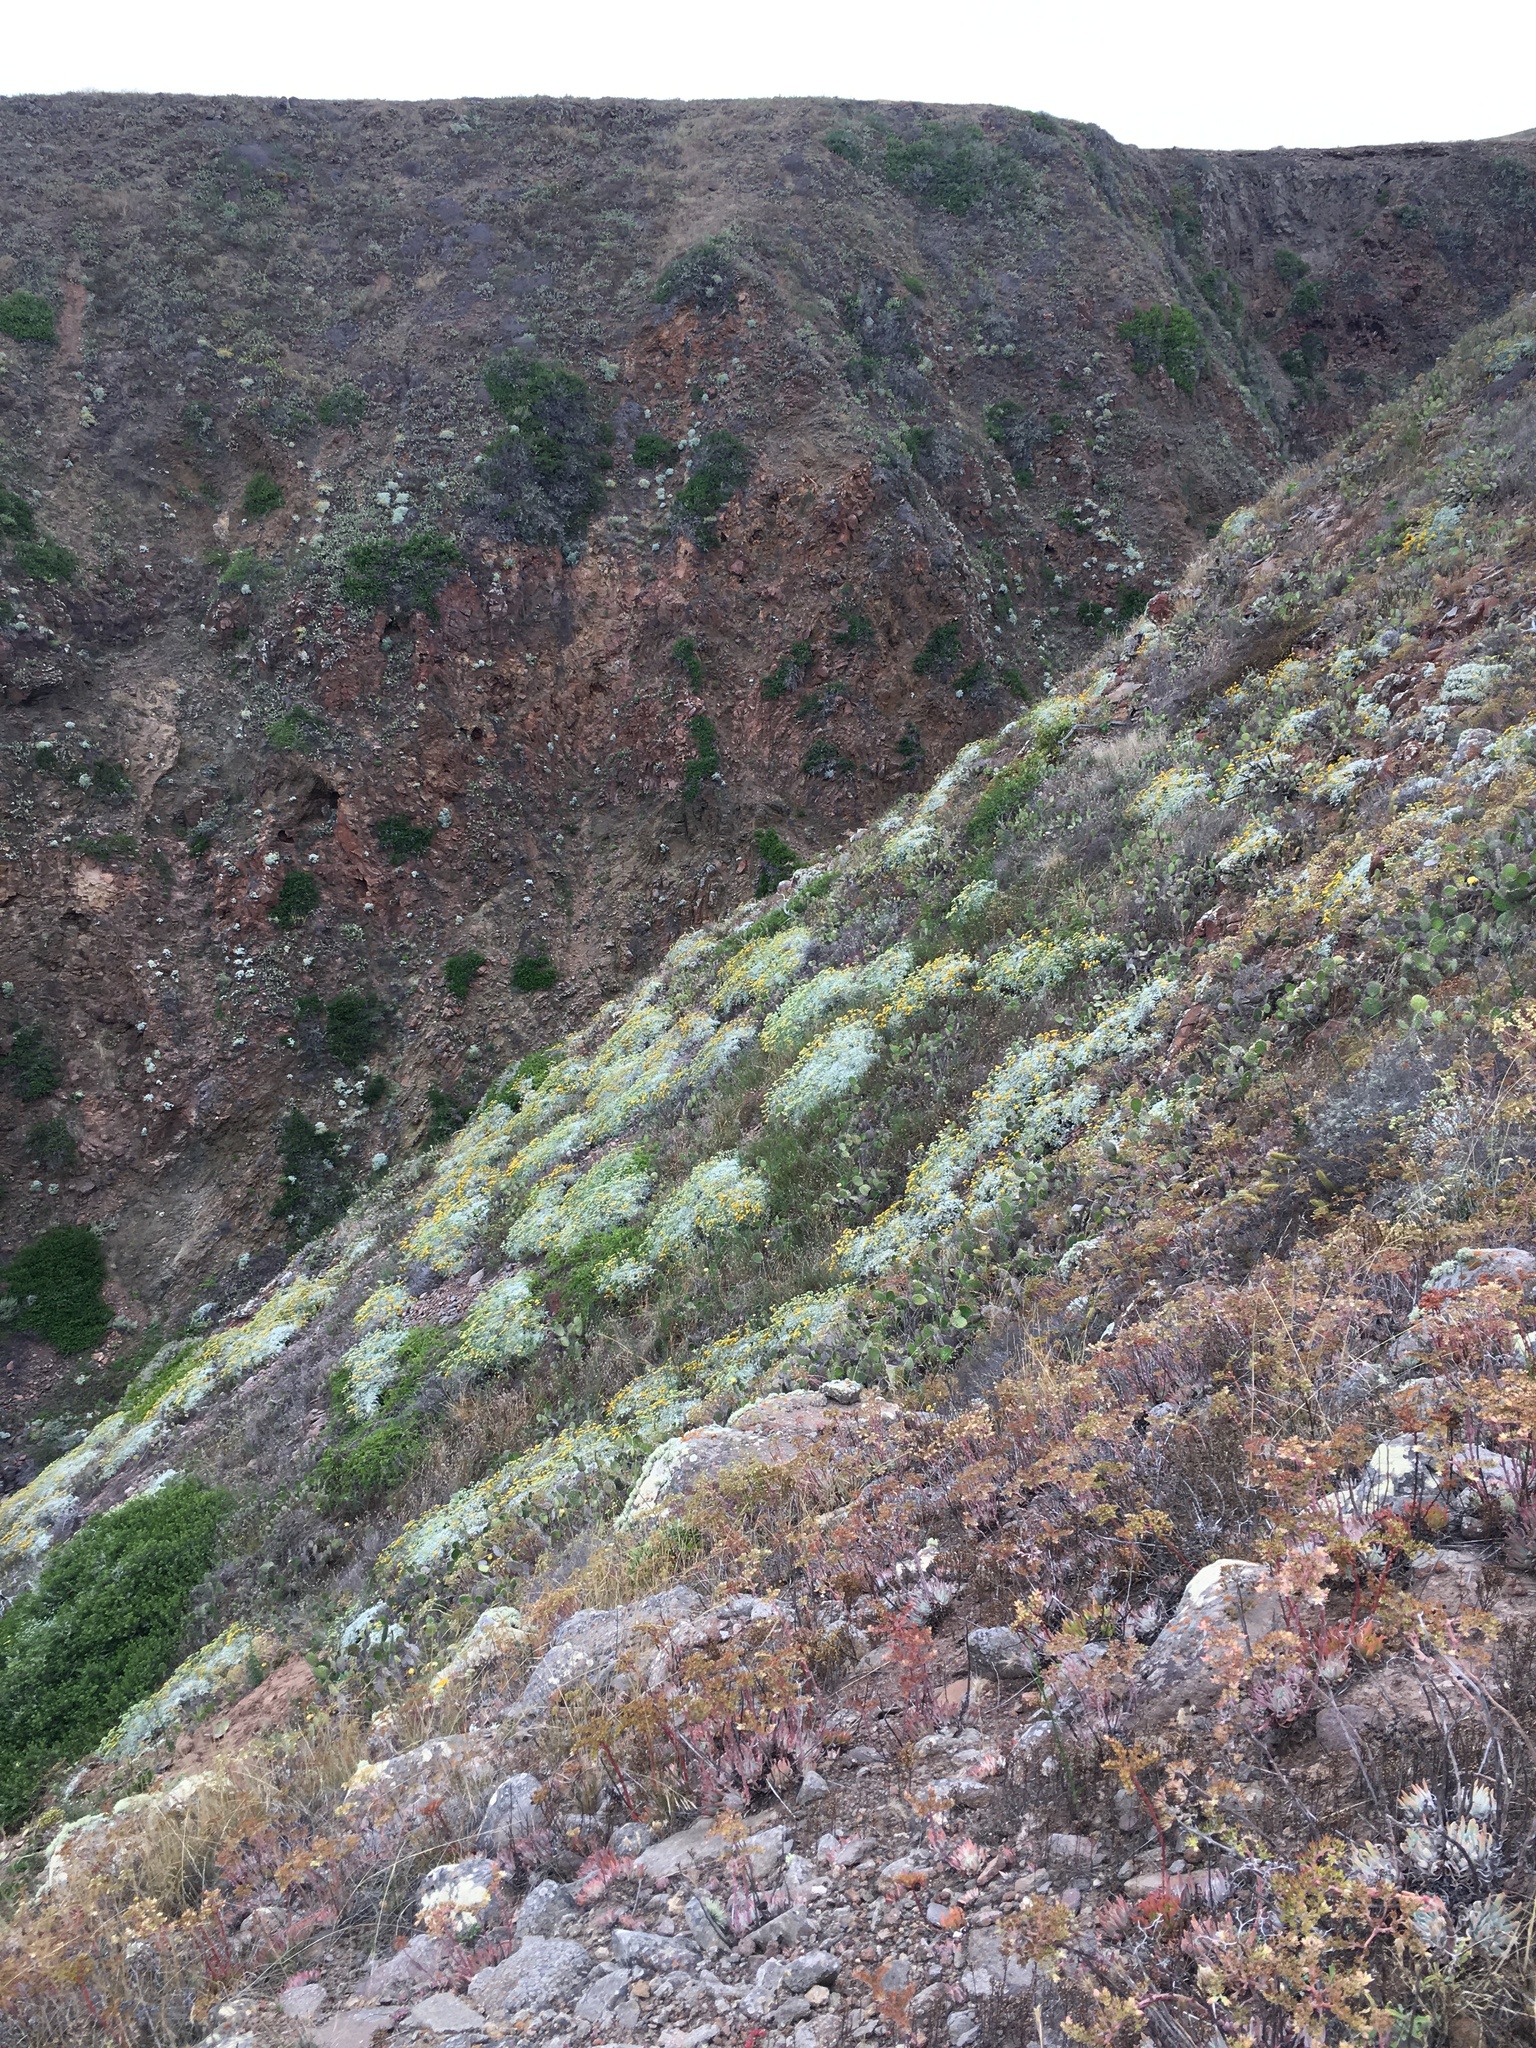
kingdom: Plantae
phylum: Tracheophyta
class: Magnoliopsida
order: Asterales
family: Asteraceae
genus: Constancea
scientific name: Constancea nevinii
